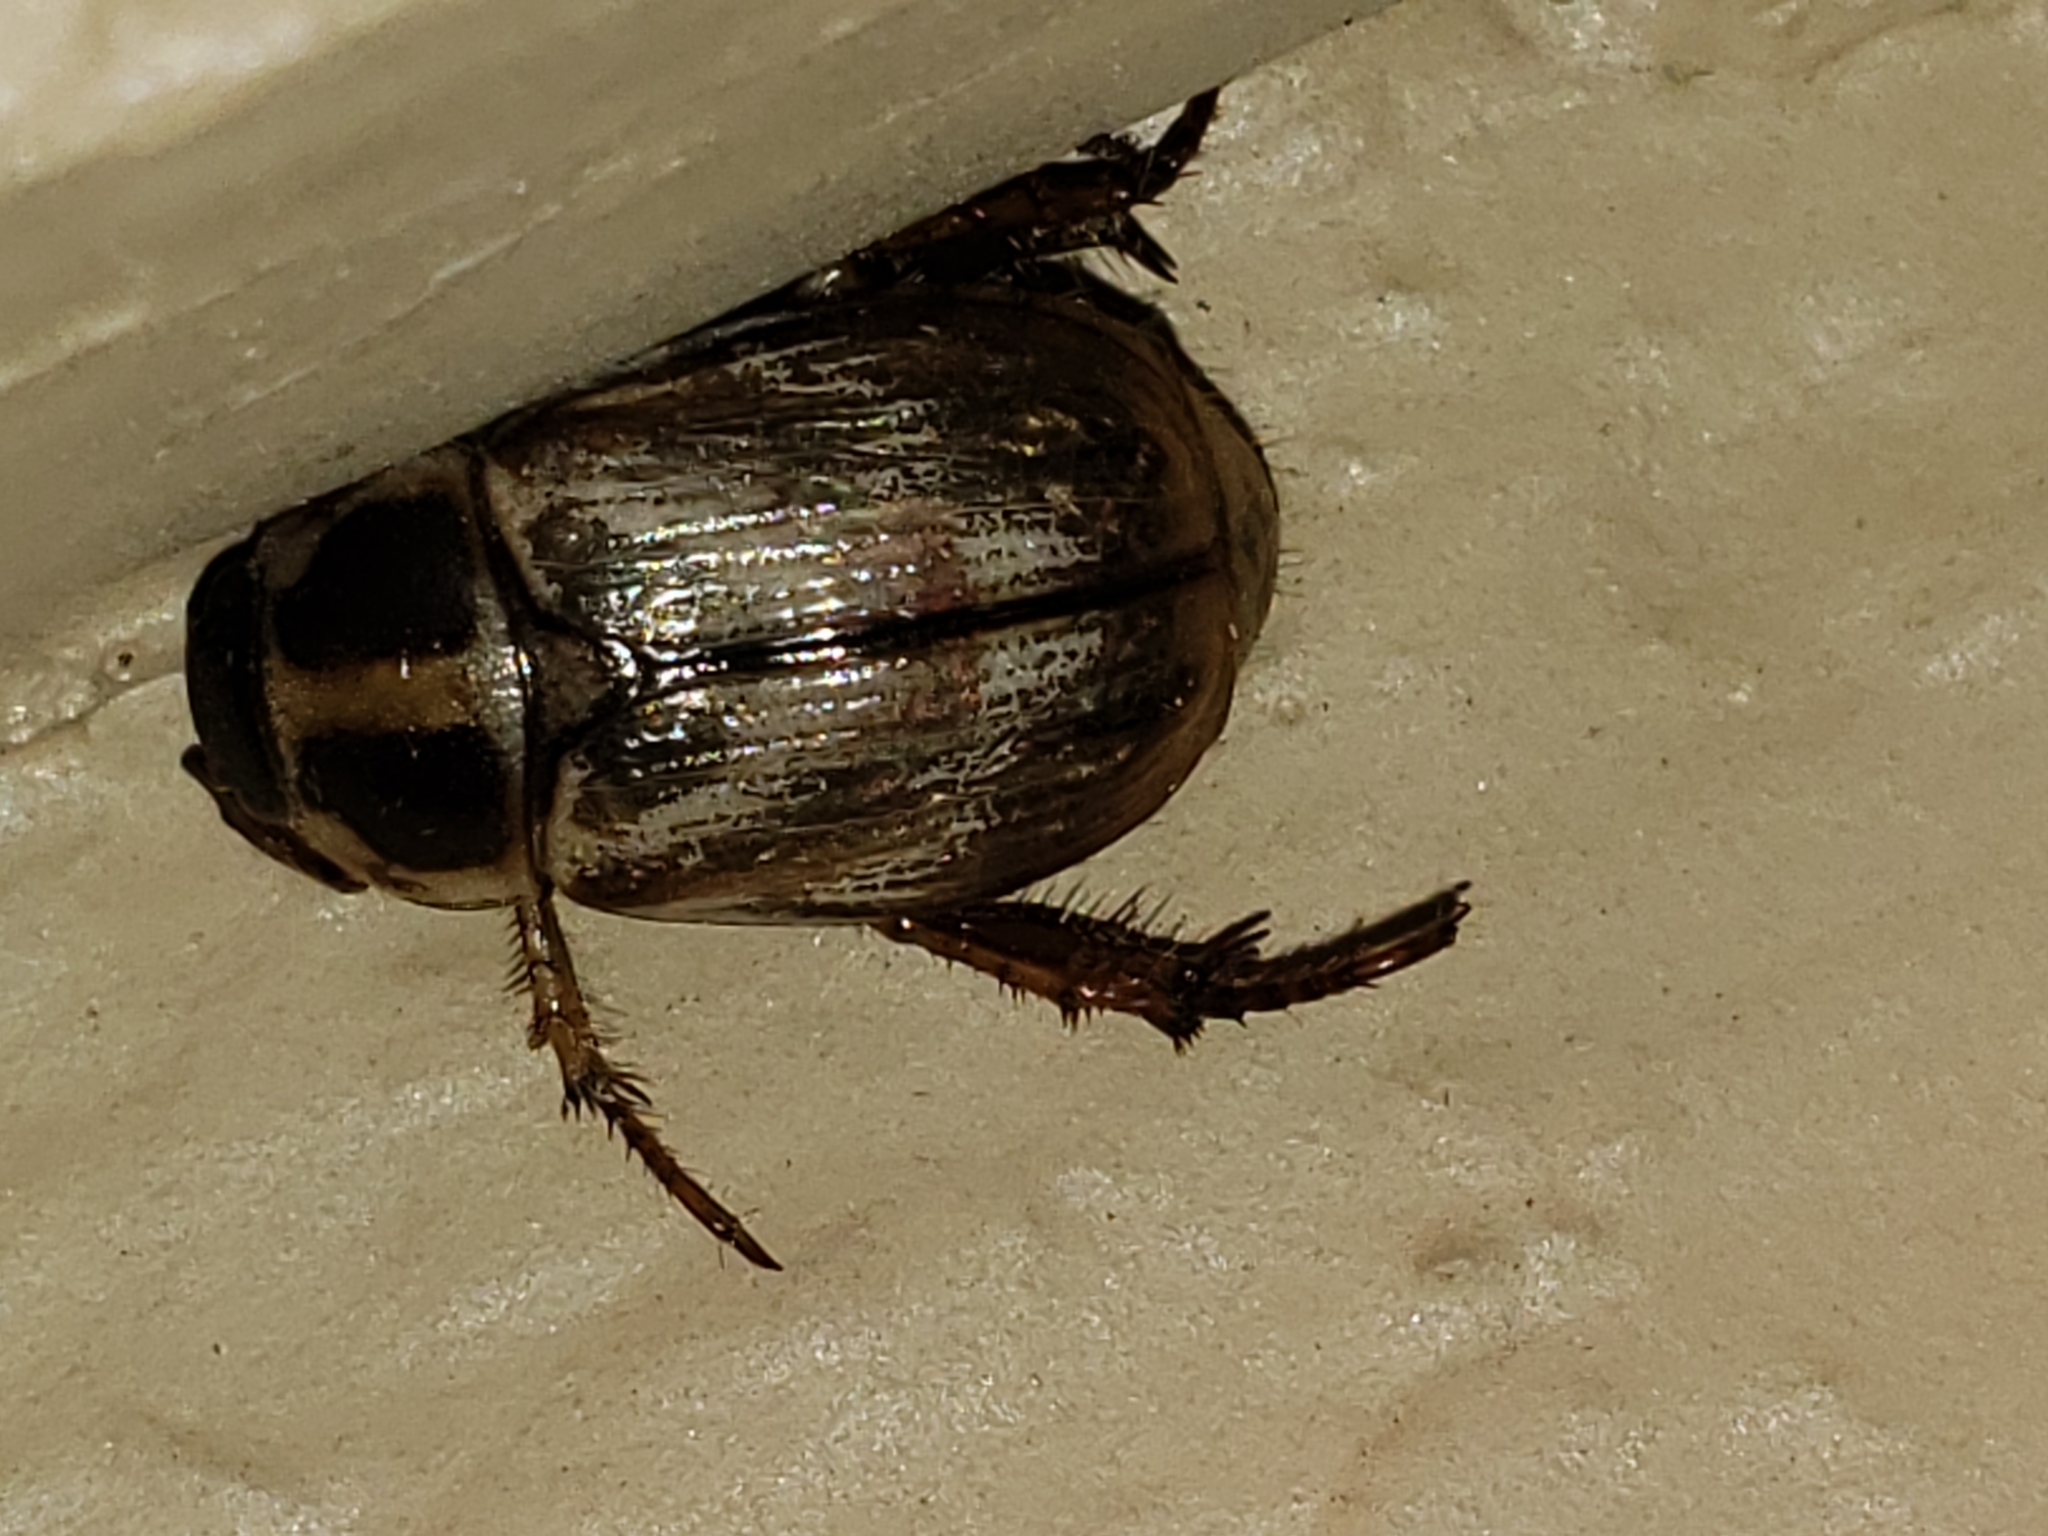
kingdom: Animalia
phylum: Arthropoda
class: Insecta
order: Coleoptera
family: Scarabaeidae
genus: Exomala
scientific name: Exomala orientalis
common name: Oriental beetle
